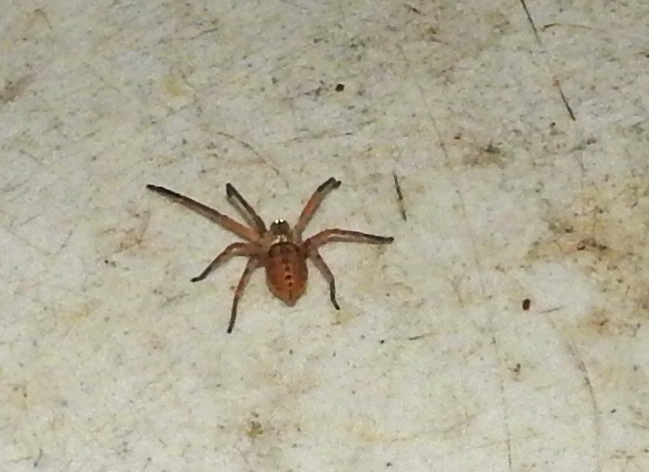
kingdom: Animalia
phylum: Arthropoda
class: Arachnida
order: Araneae
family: Sparassidae
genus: Curicaberis
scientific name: Curicaberis culiacan
